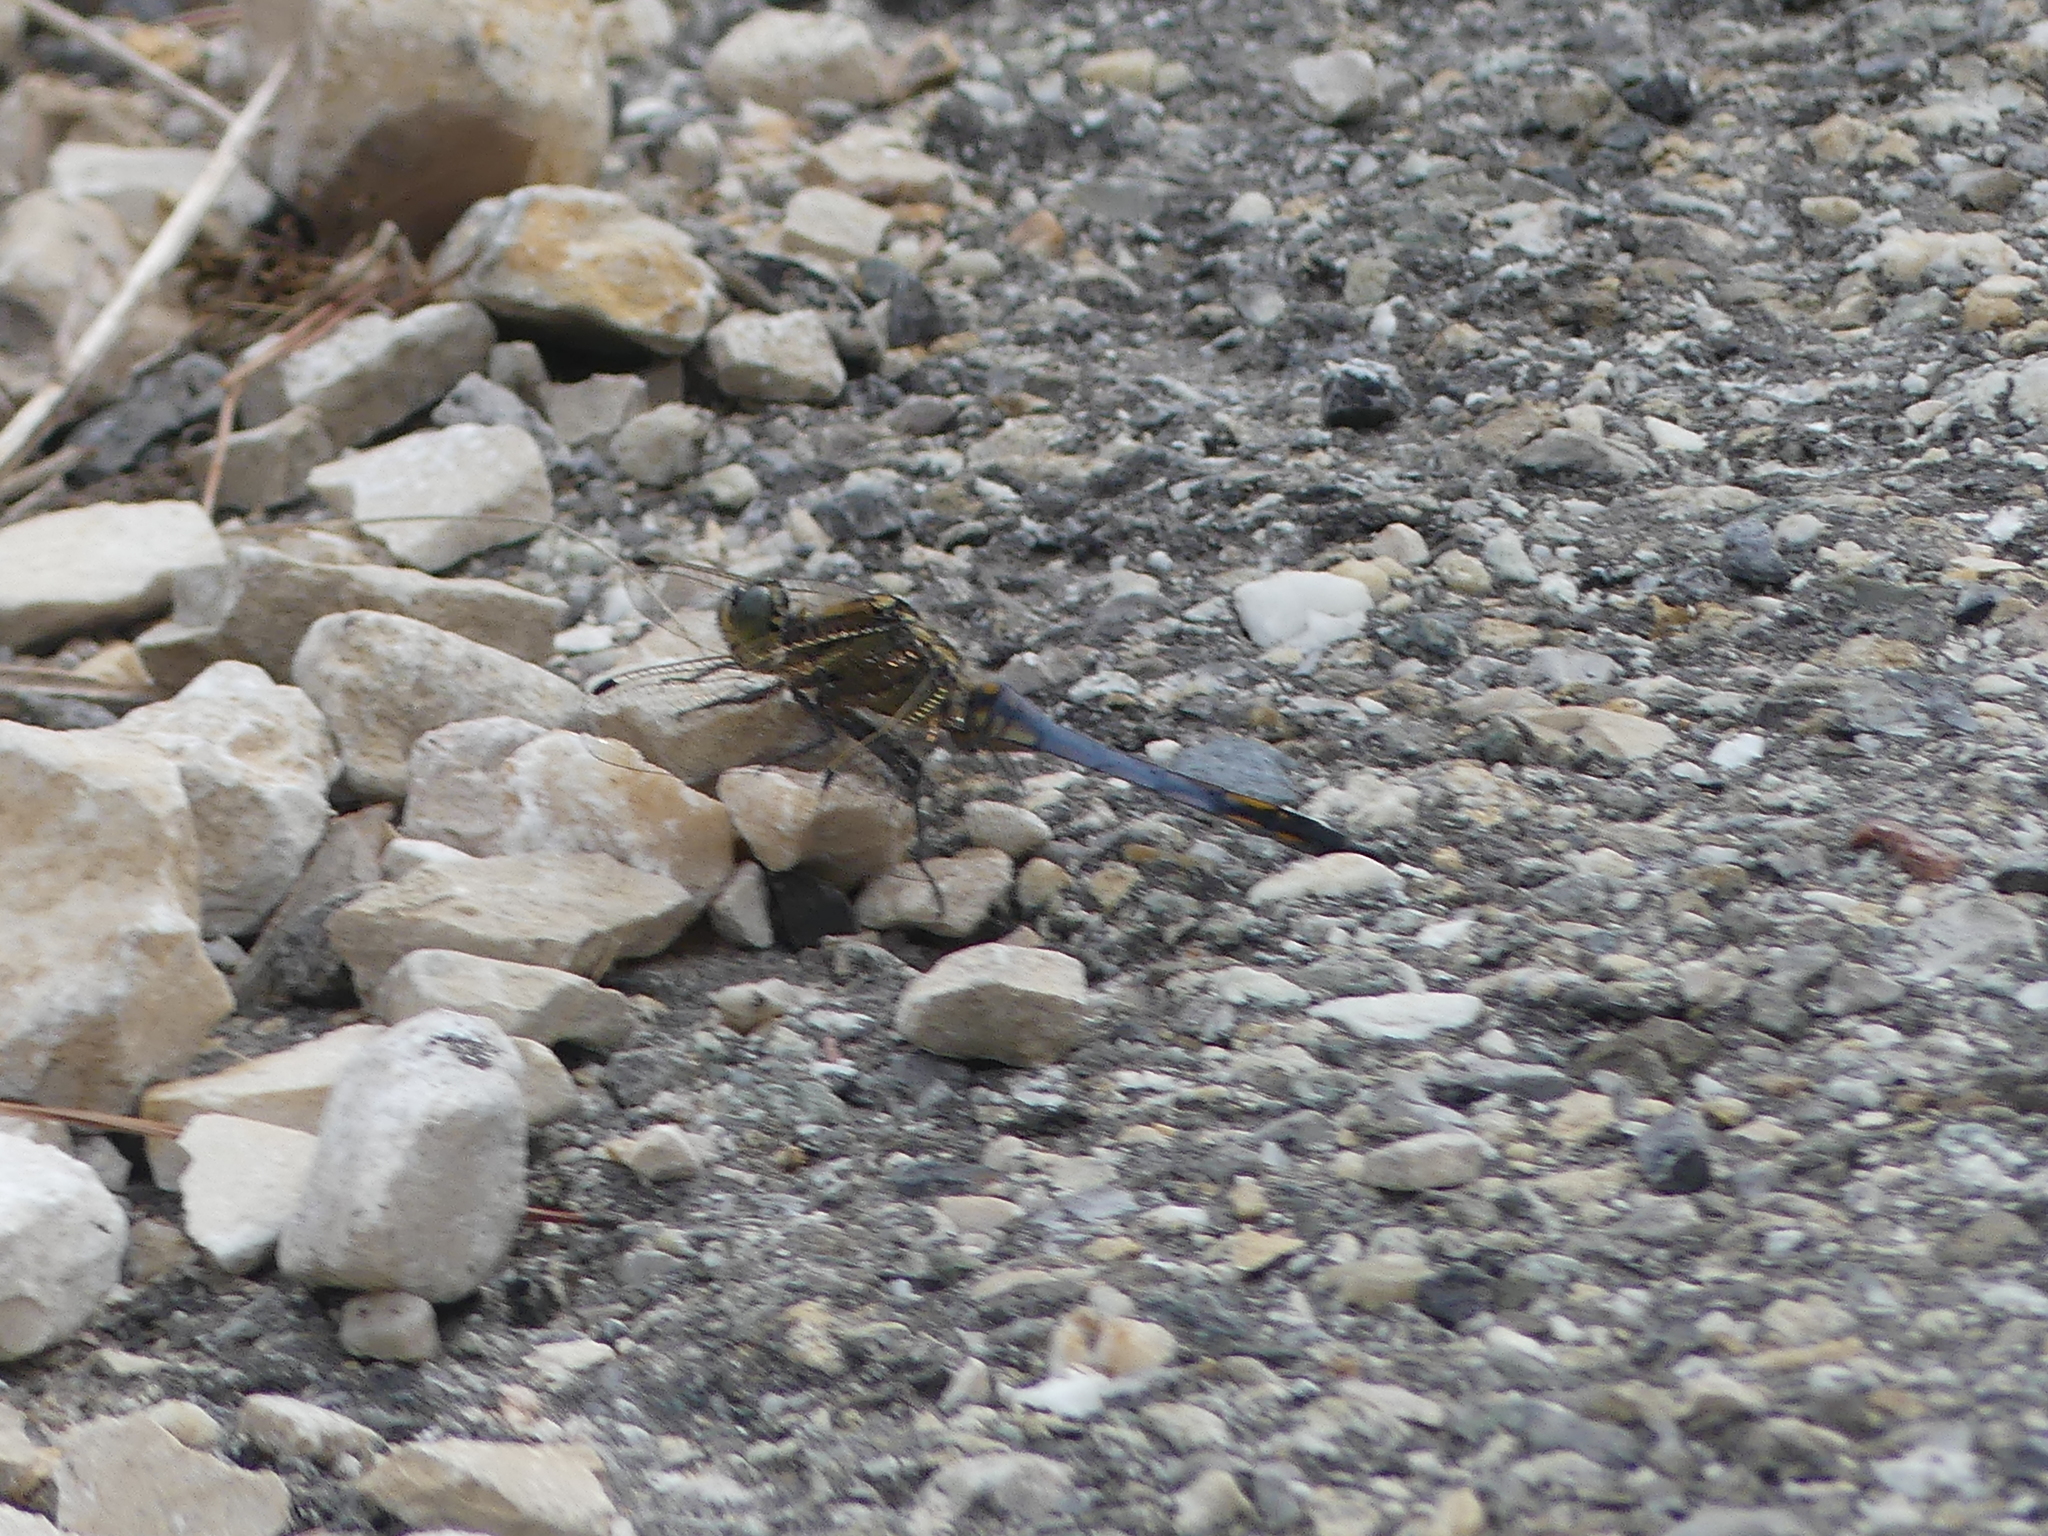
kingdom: Animalia
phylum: Arthropoda
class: Insecta
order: Odonata
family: Libellulidae
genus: Orthetrum
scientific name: Orthetrum cancellatum
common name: Black-tailed skimmer
